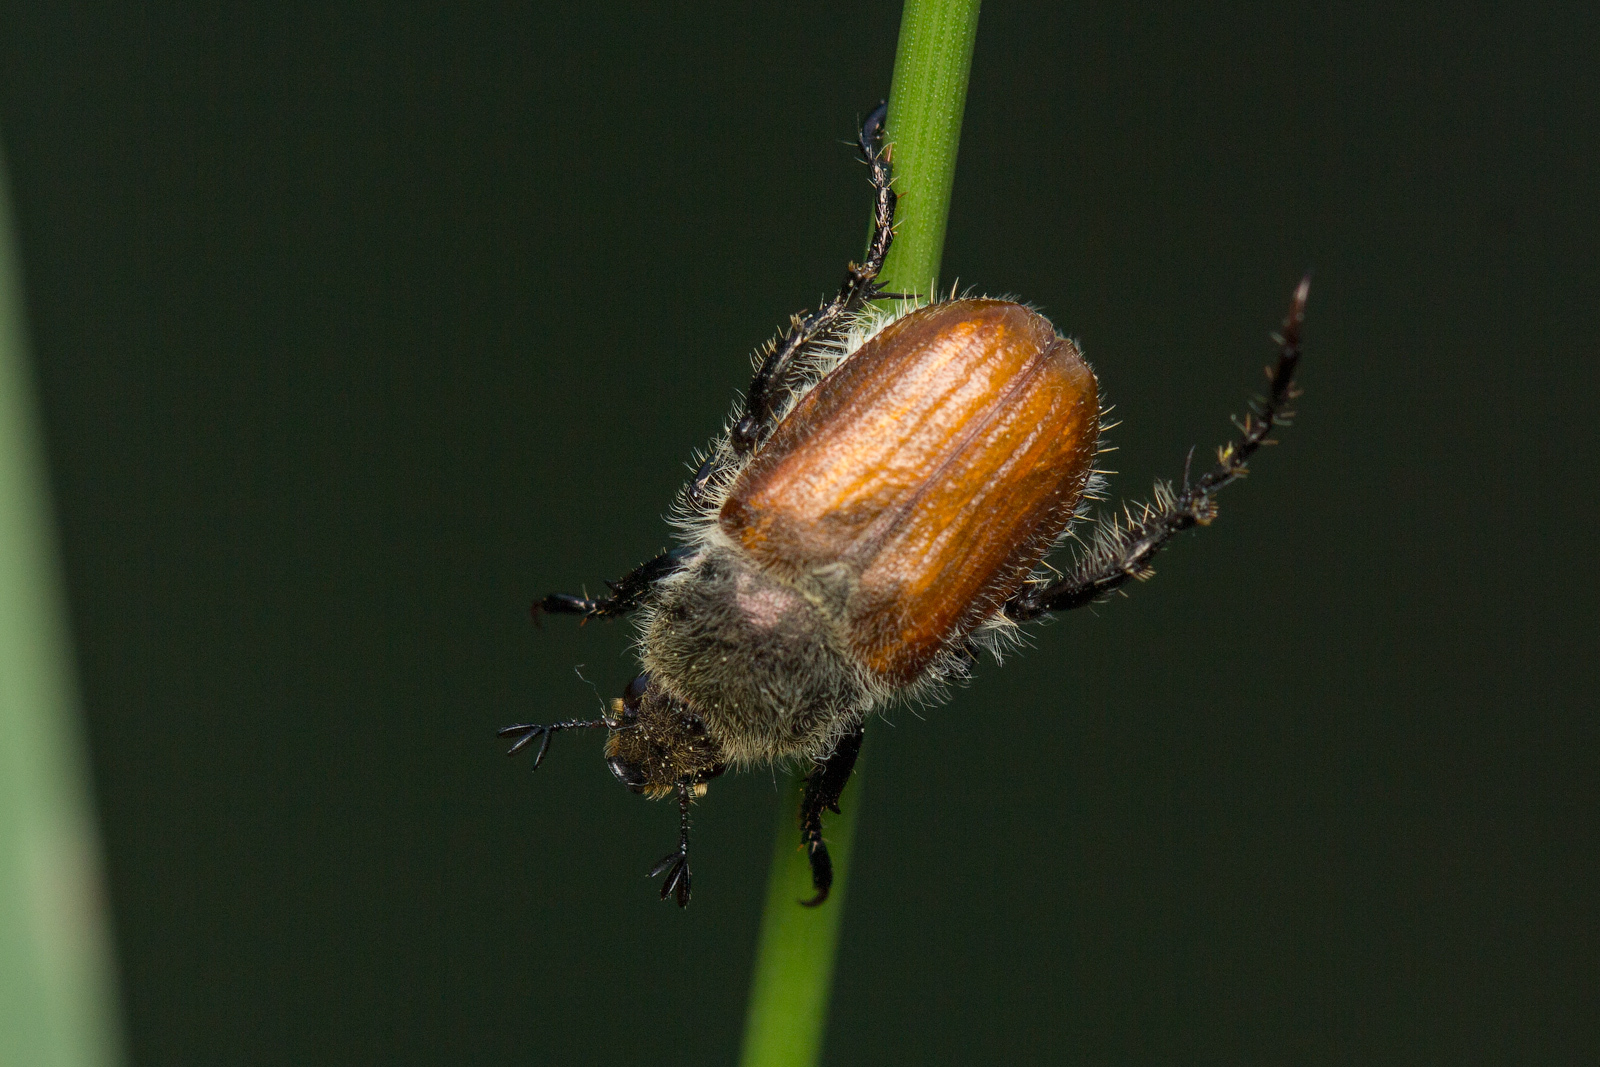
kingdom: Animalia
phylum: Arthropoda
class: Insecta
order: Coleoptera
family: Scarabaeidae
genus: Chaetopteroplia
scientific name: Chaetopteroplia segetum
